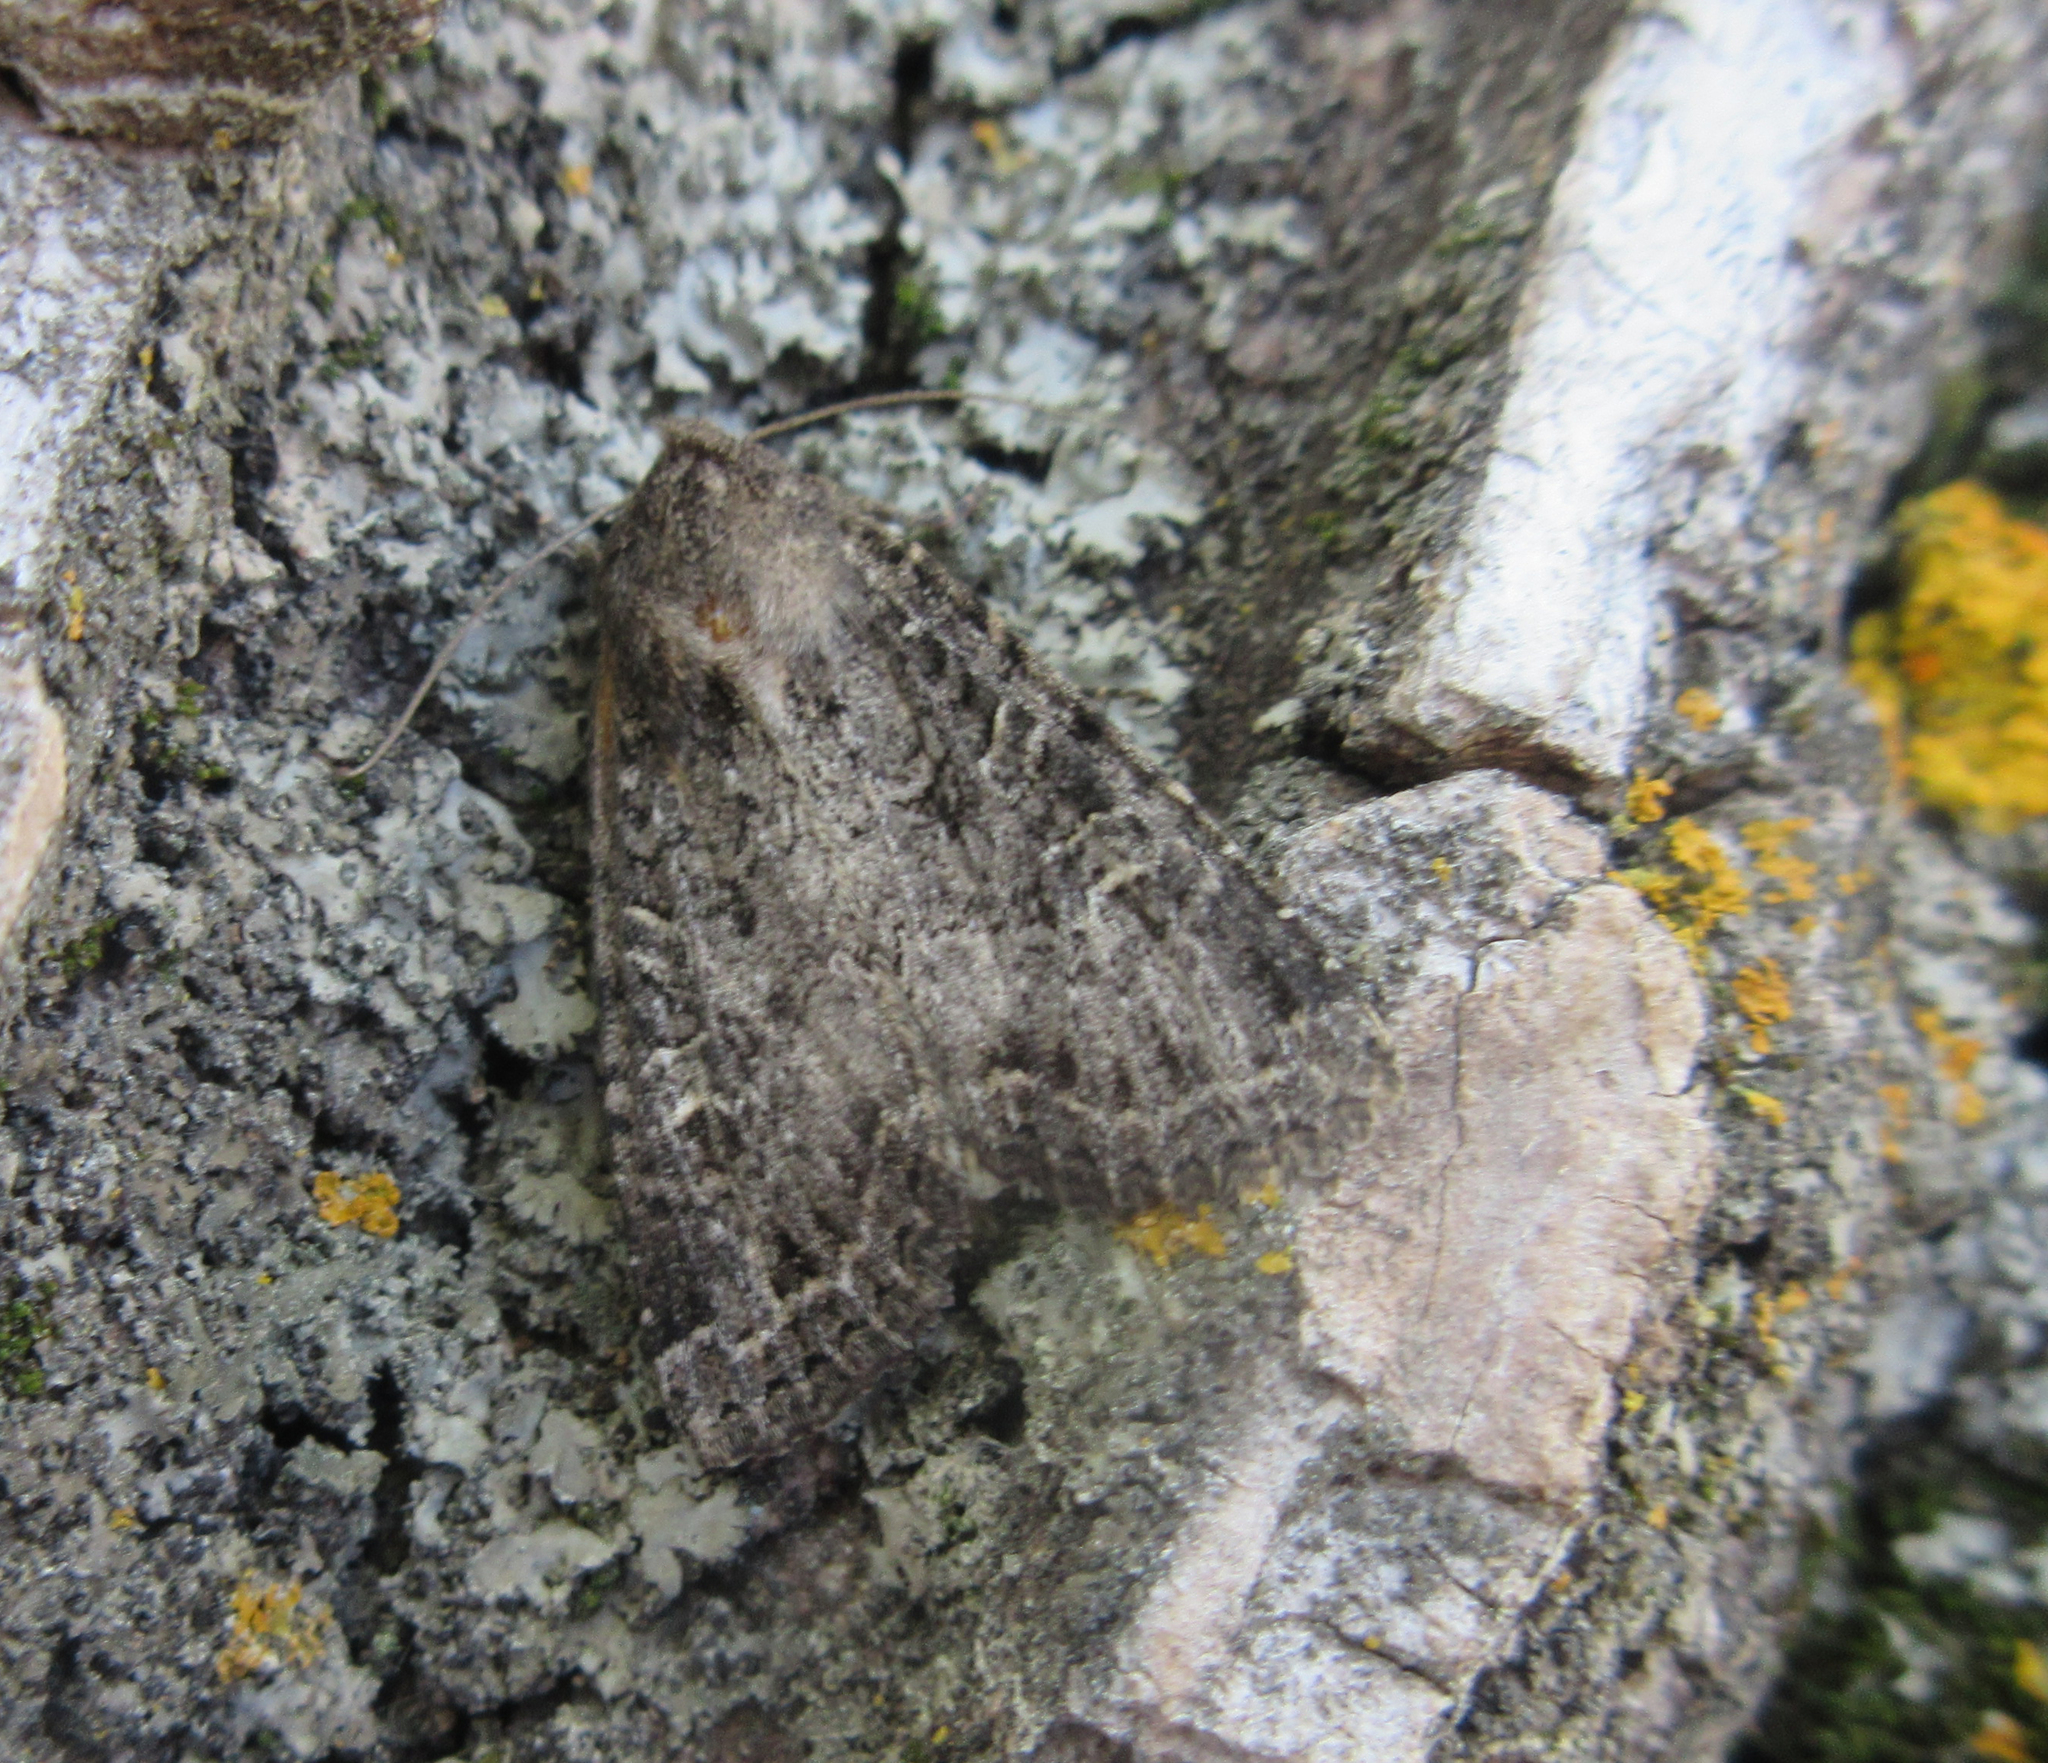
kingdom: Animalia
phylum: Arthropoda
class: Insecta
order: Lepidoptera
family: Noctuidae
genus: Apamea
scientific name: Apamea devastator
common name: Glassy cutworm
